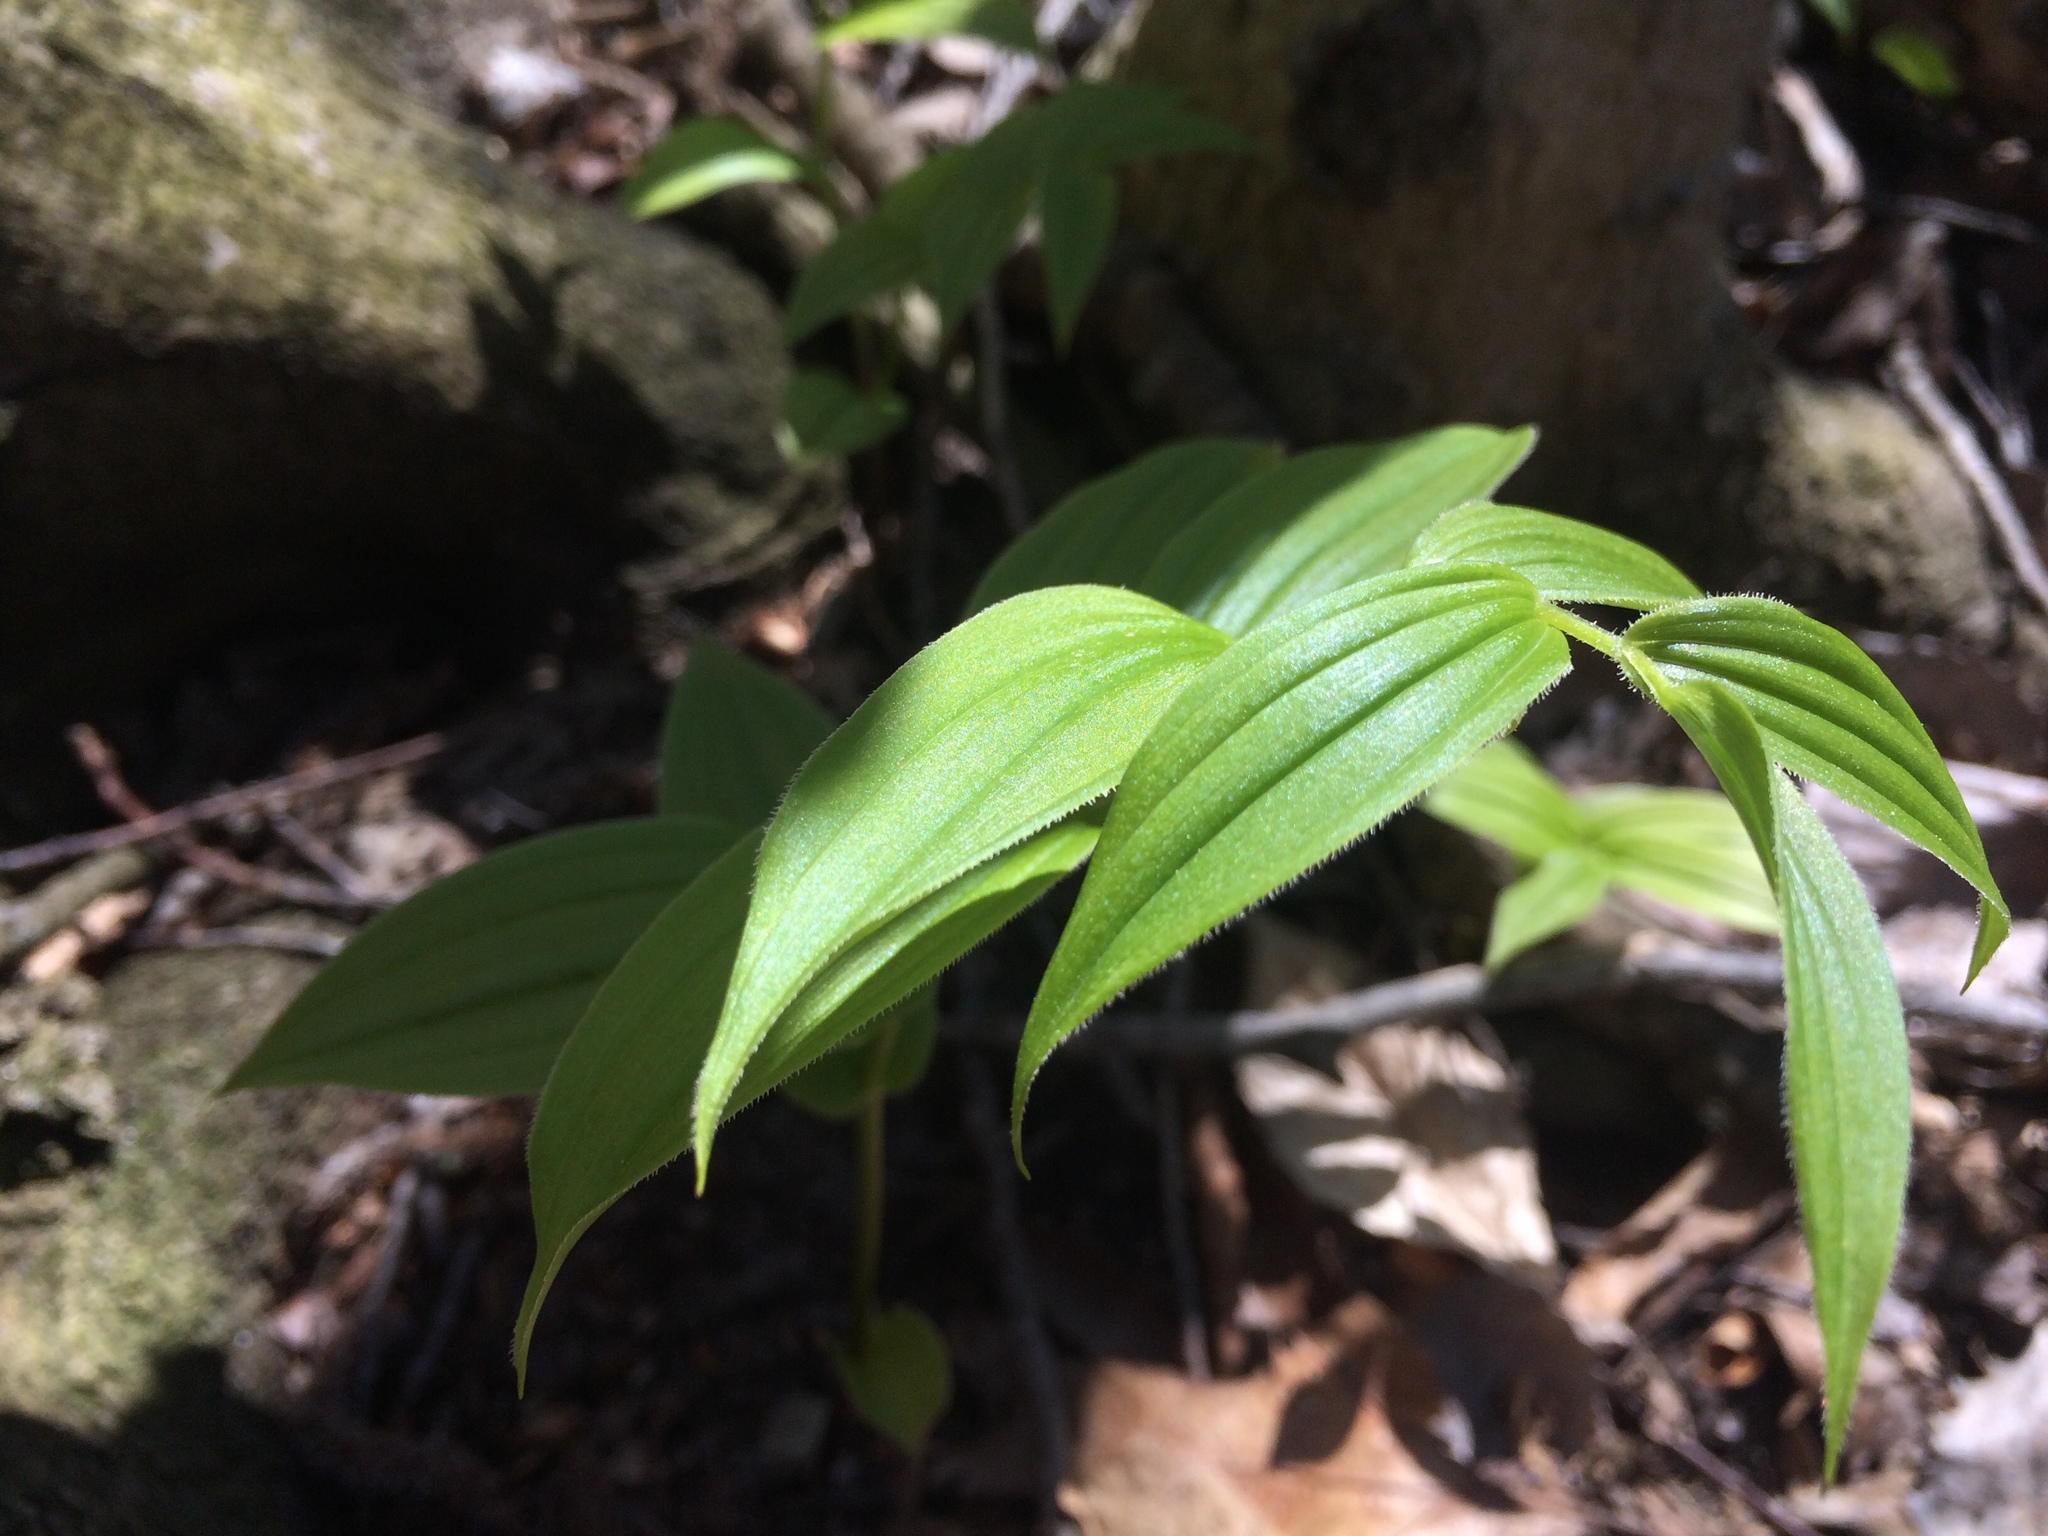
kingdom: Plantae
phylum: Tracheophyta
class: Liliopsida
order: Liliales
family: Liliaceae
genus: Streptopus
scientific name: Streptopus lanceolatus
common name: Rose mandarin
